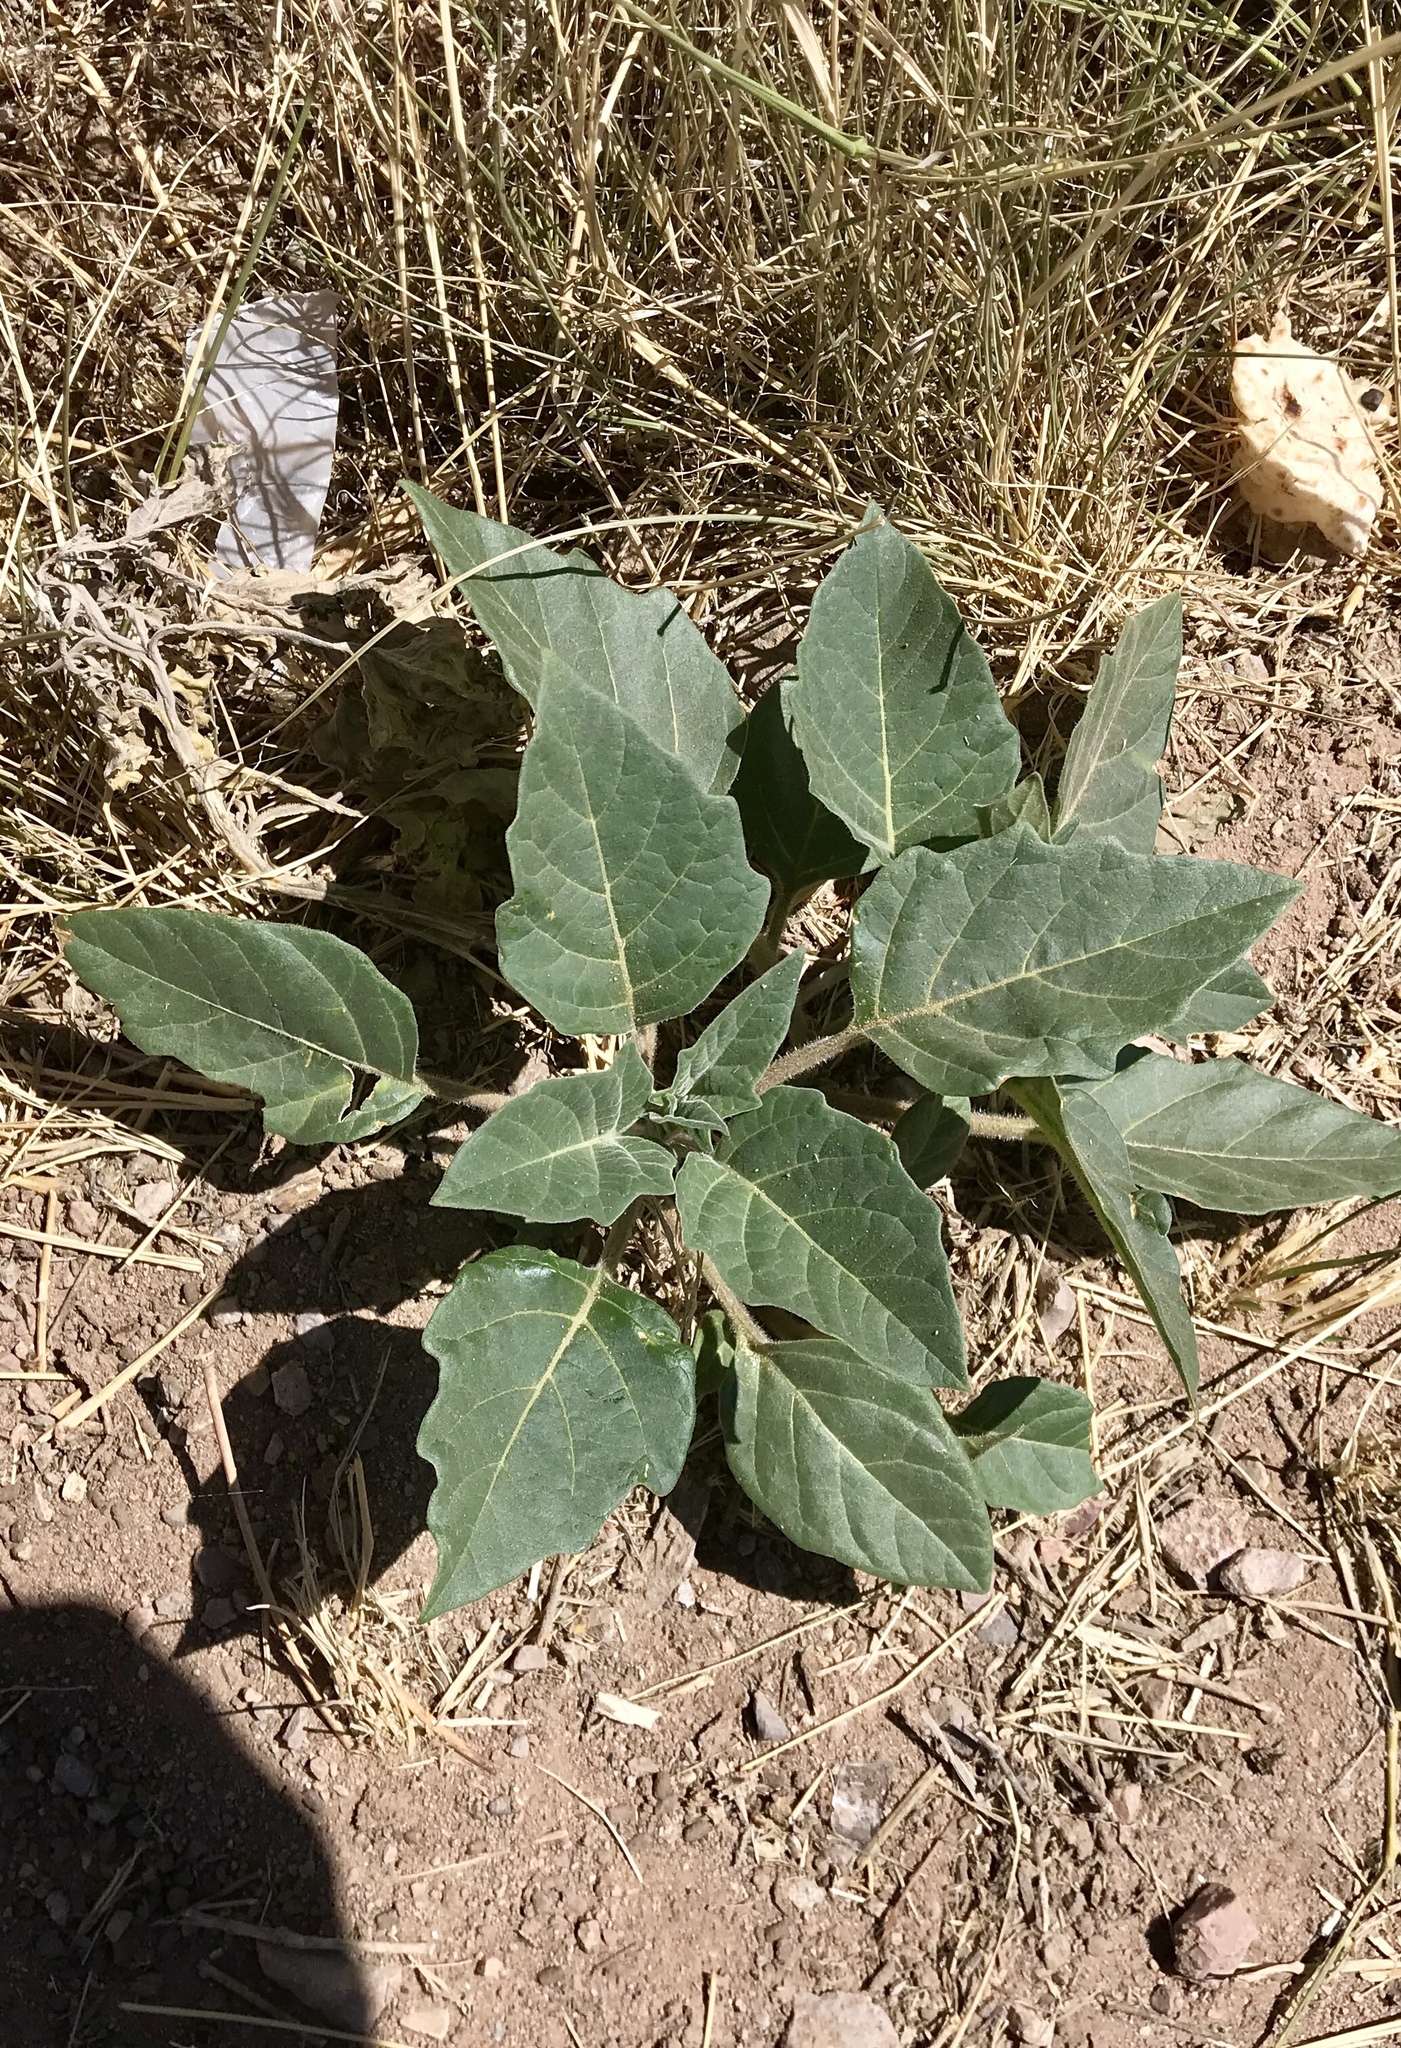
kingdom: Plantae
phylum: Tracheophyta
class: Magnoliopsida
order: Solanales
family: Solanaceae
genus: Datura
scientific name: Datura wrightii
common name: Sacred thorn-apple
